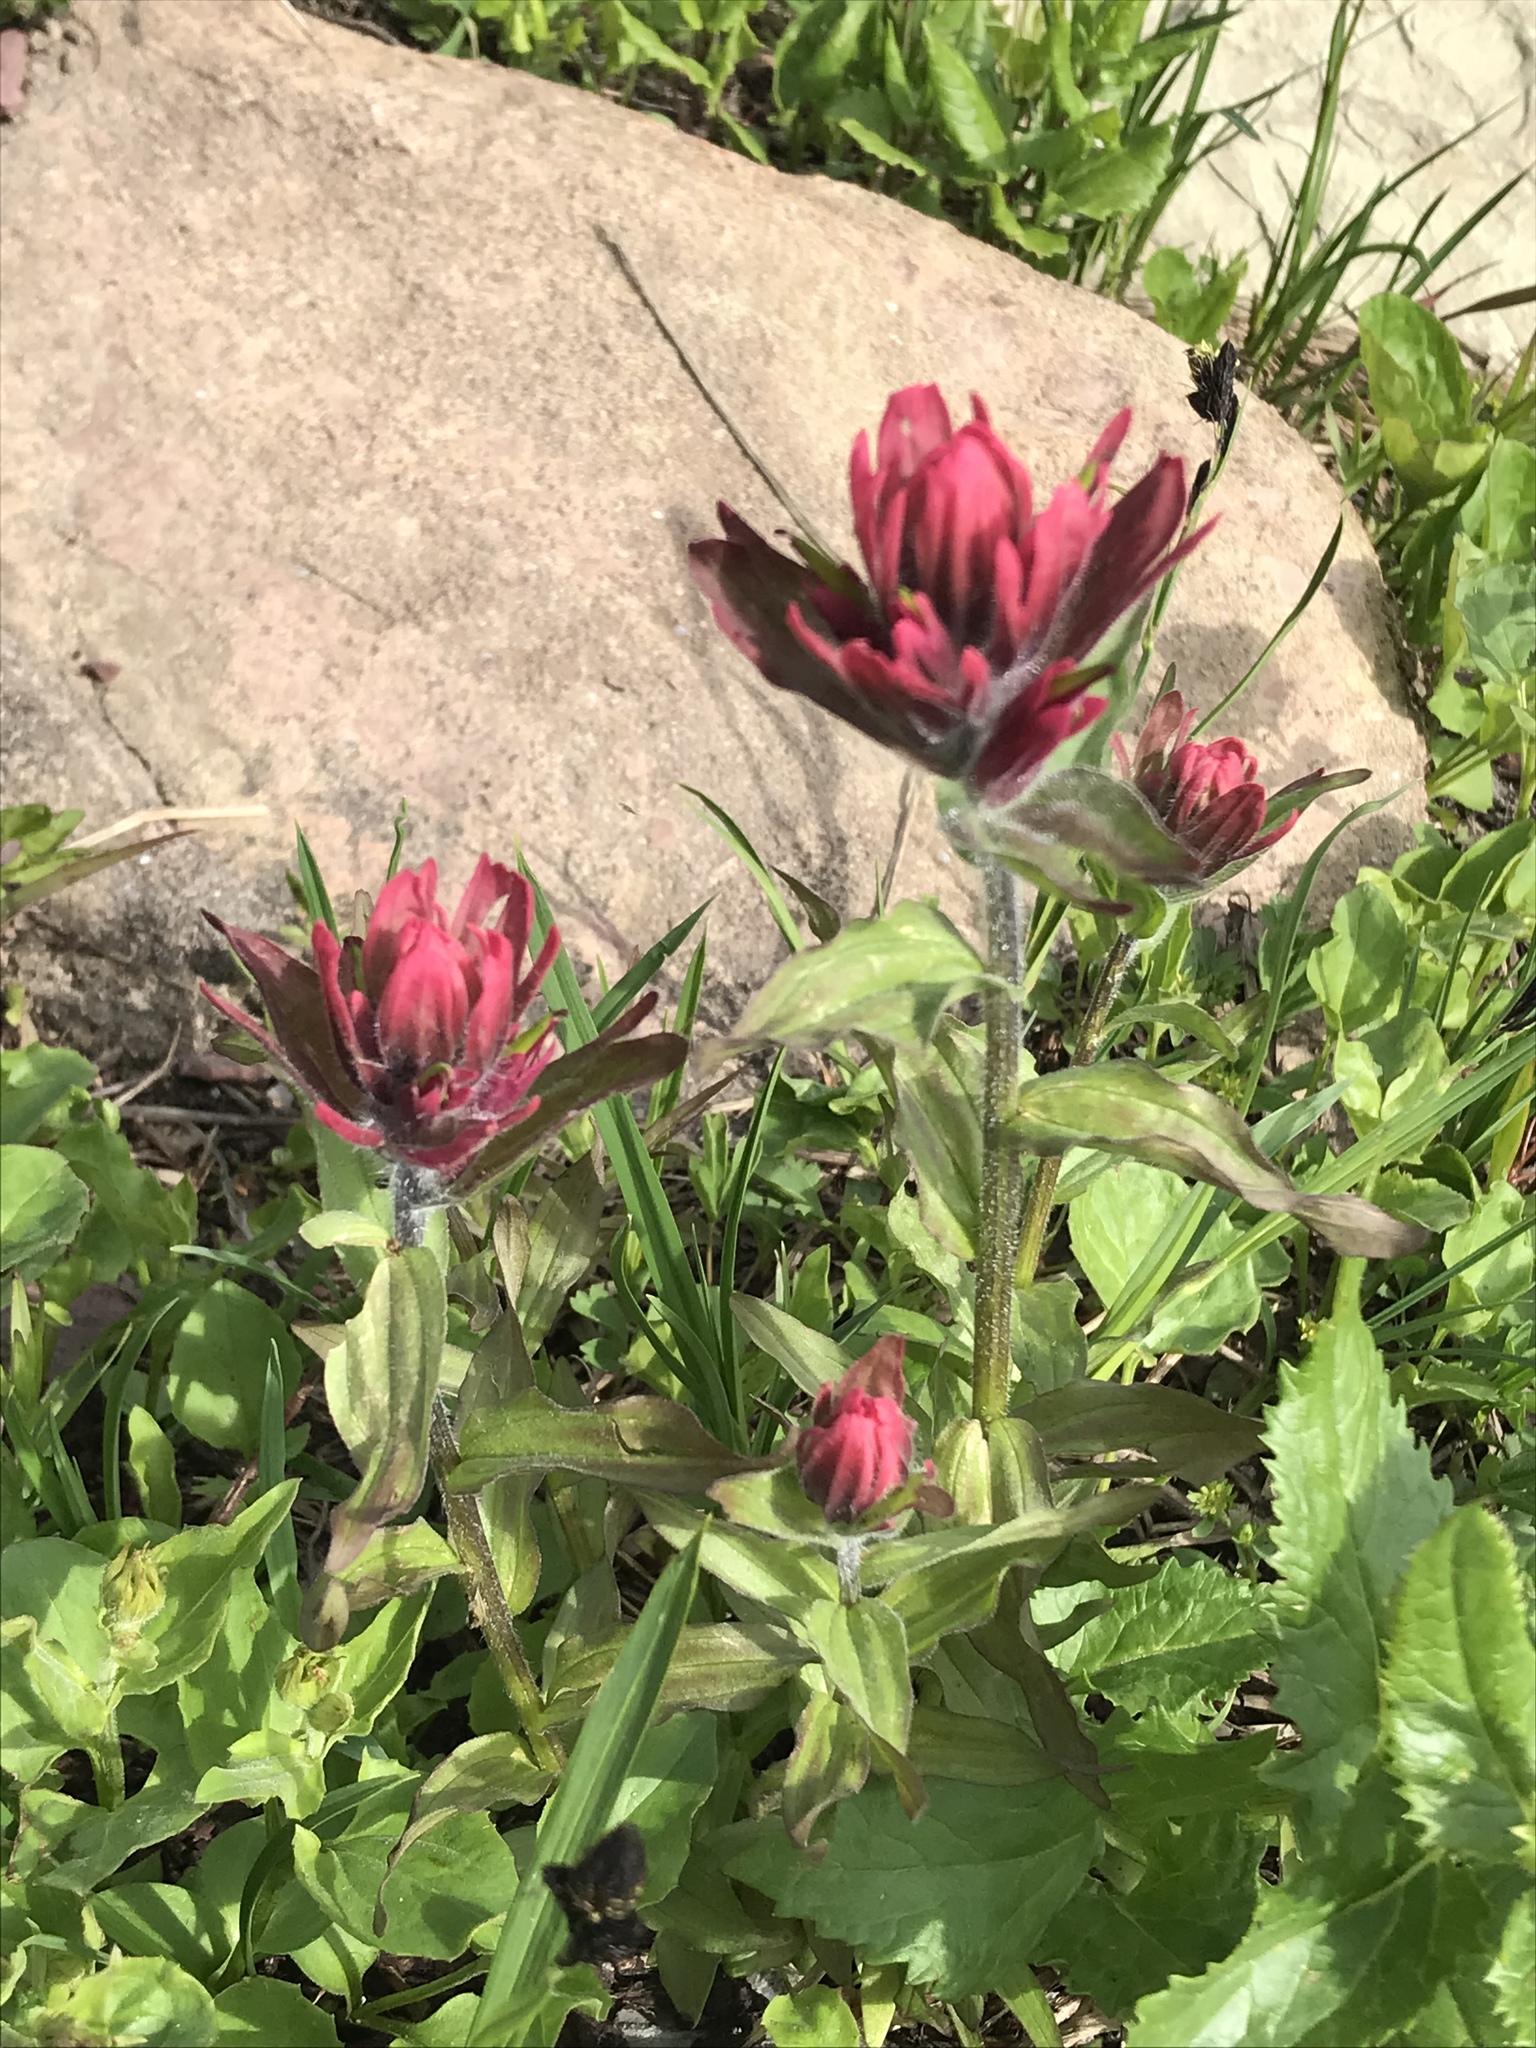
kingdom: Plantae
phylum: Tracheophyta
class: Magnoliopsida
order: Lamiales
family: Orobanchaceae
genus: Castilleja
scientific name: Castilleja rhexifolia
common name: Rocky mountain paintbrush
